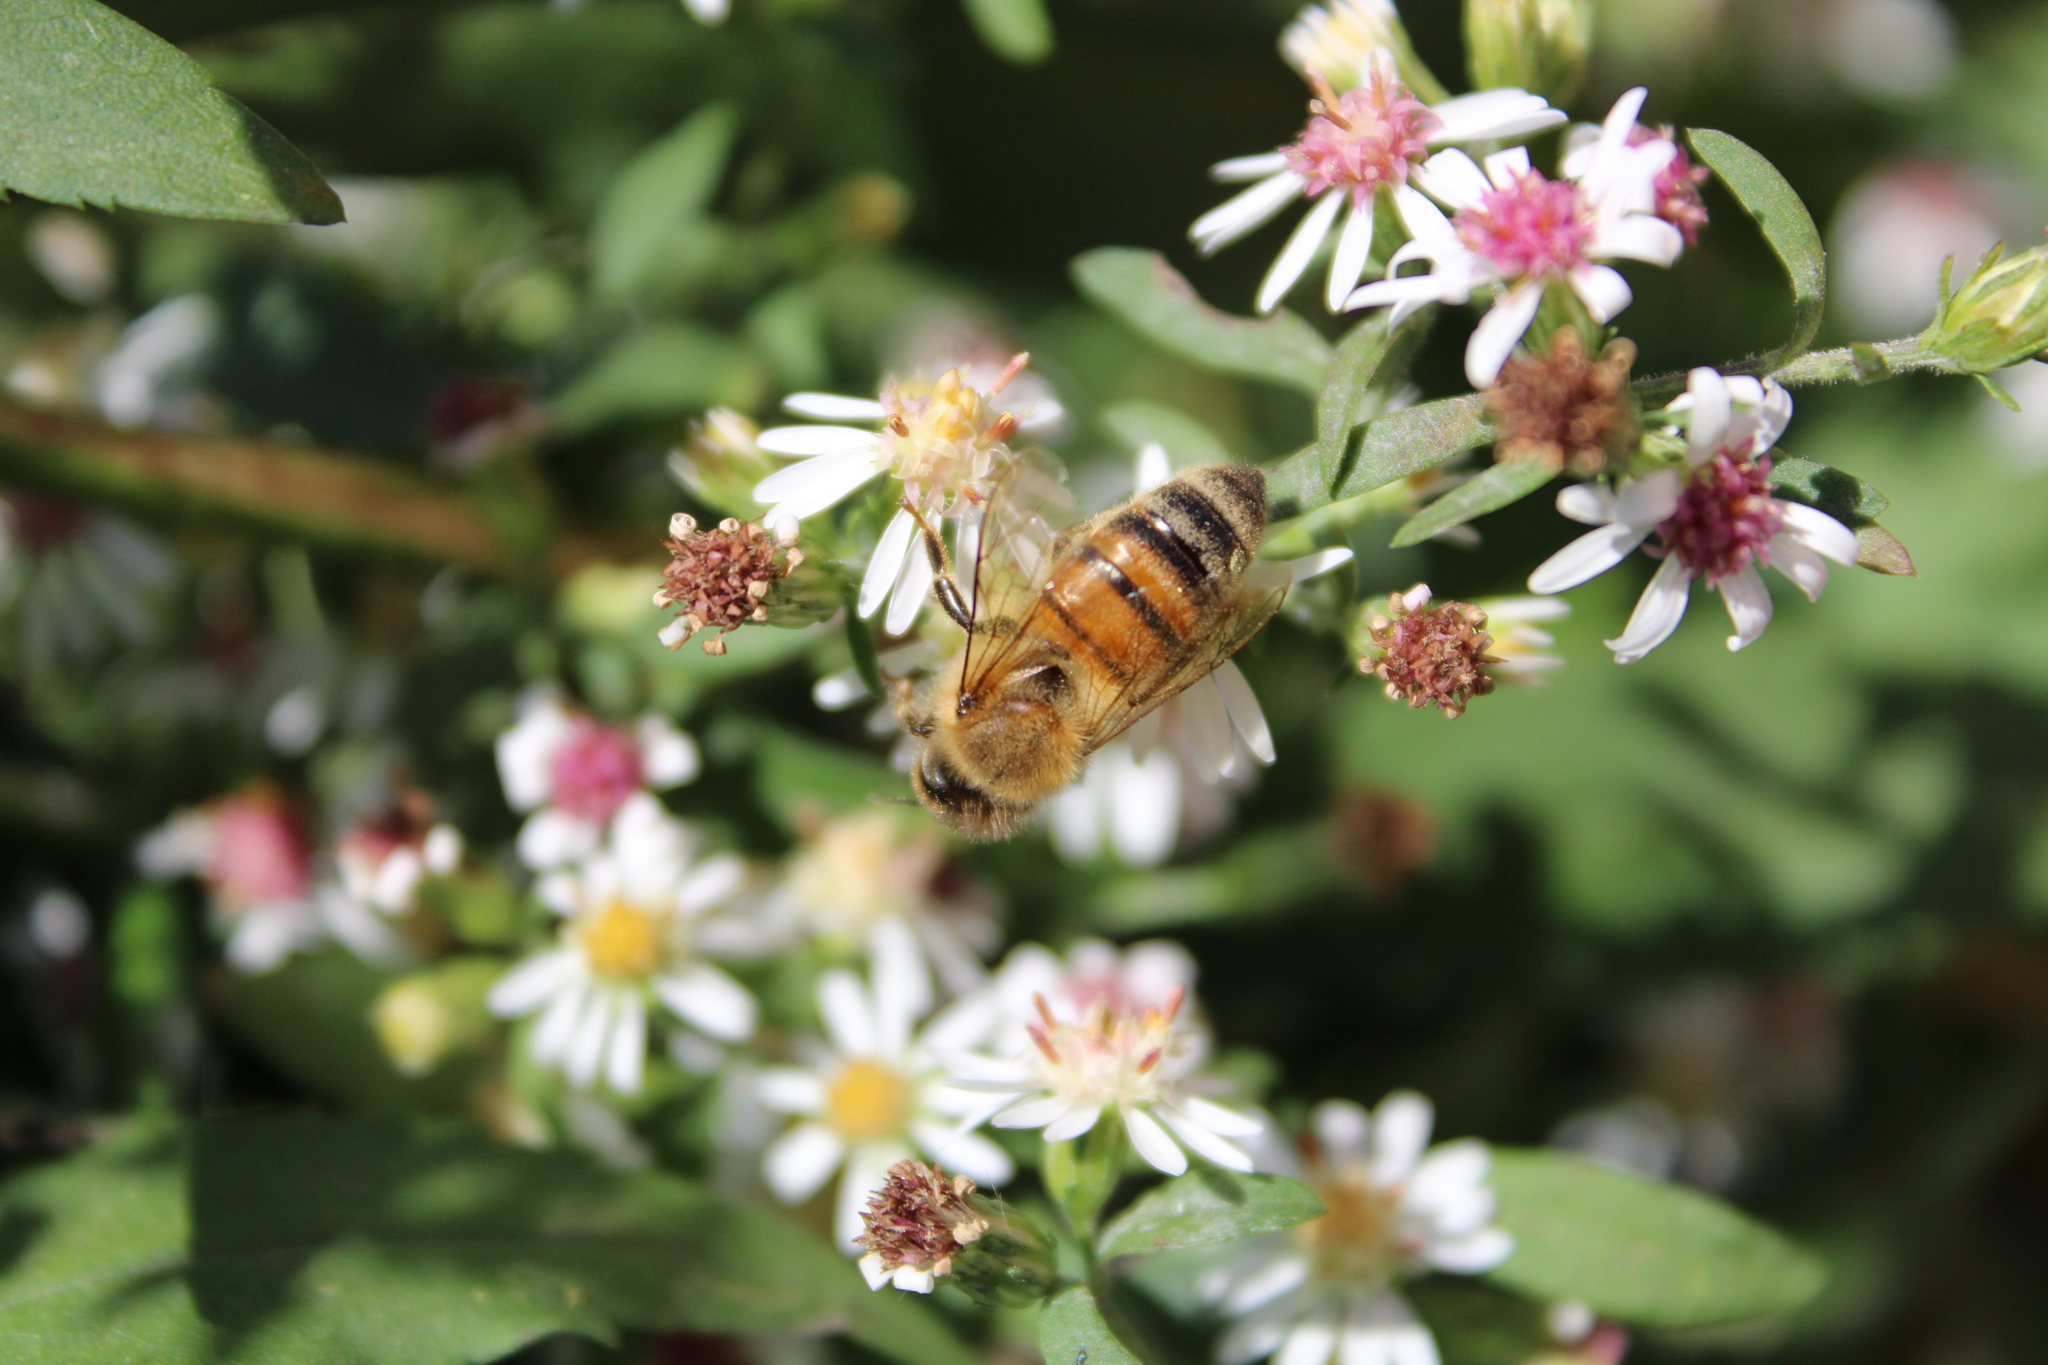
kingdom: Animalia
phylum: Arthropoda
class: Insecta
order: Hymenoptera
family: Apidae
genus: Apis
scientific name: Apis mellifera
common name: Honey bee
